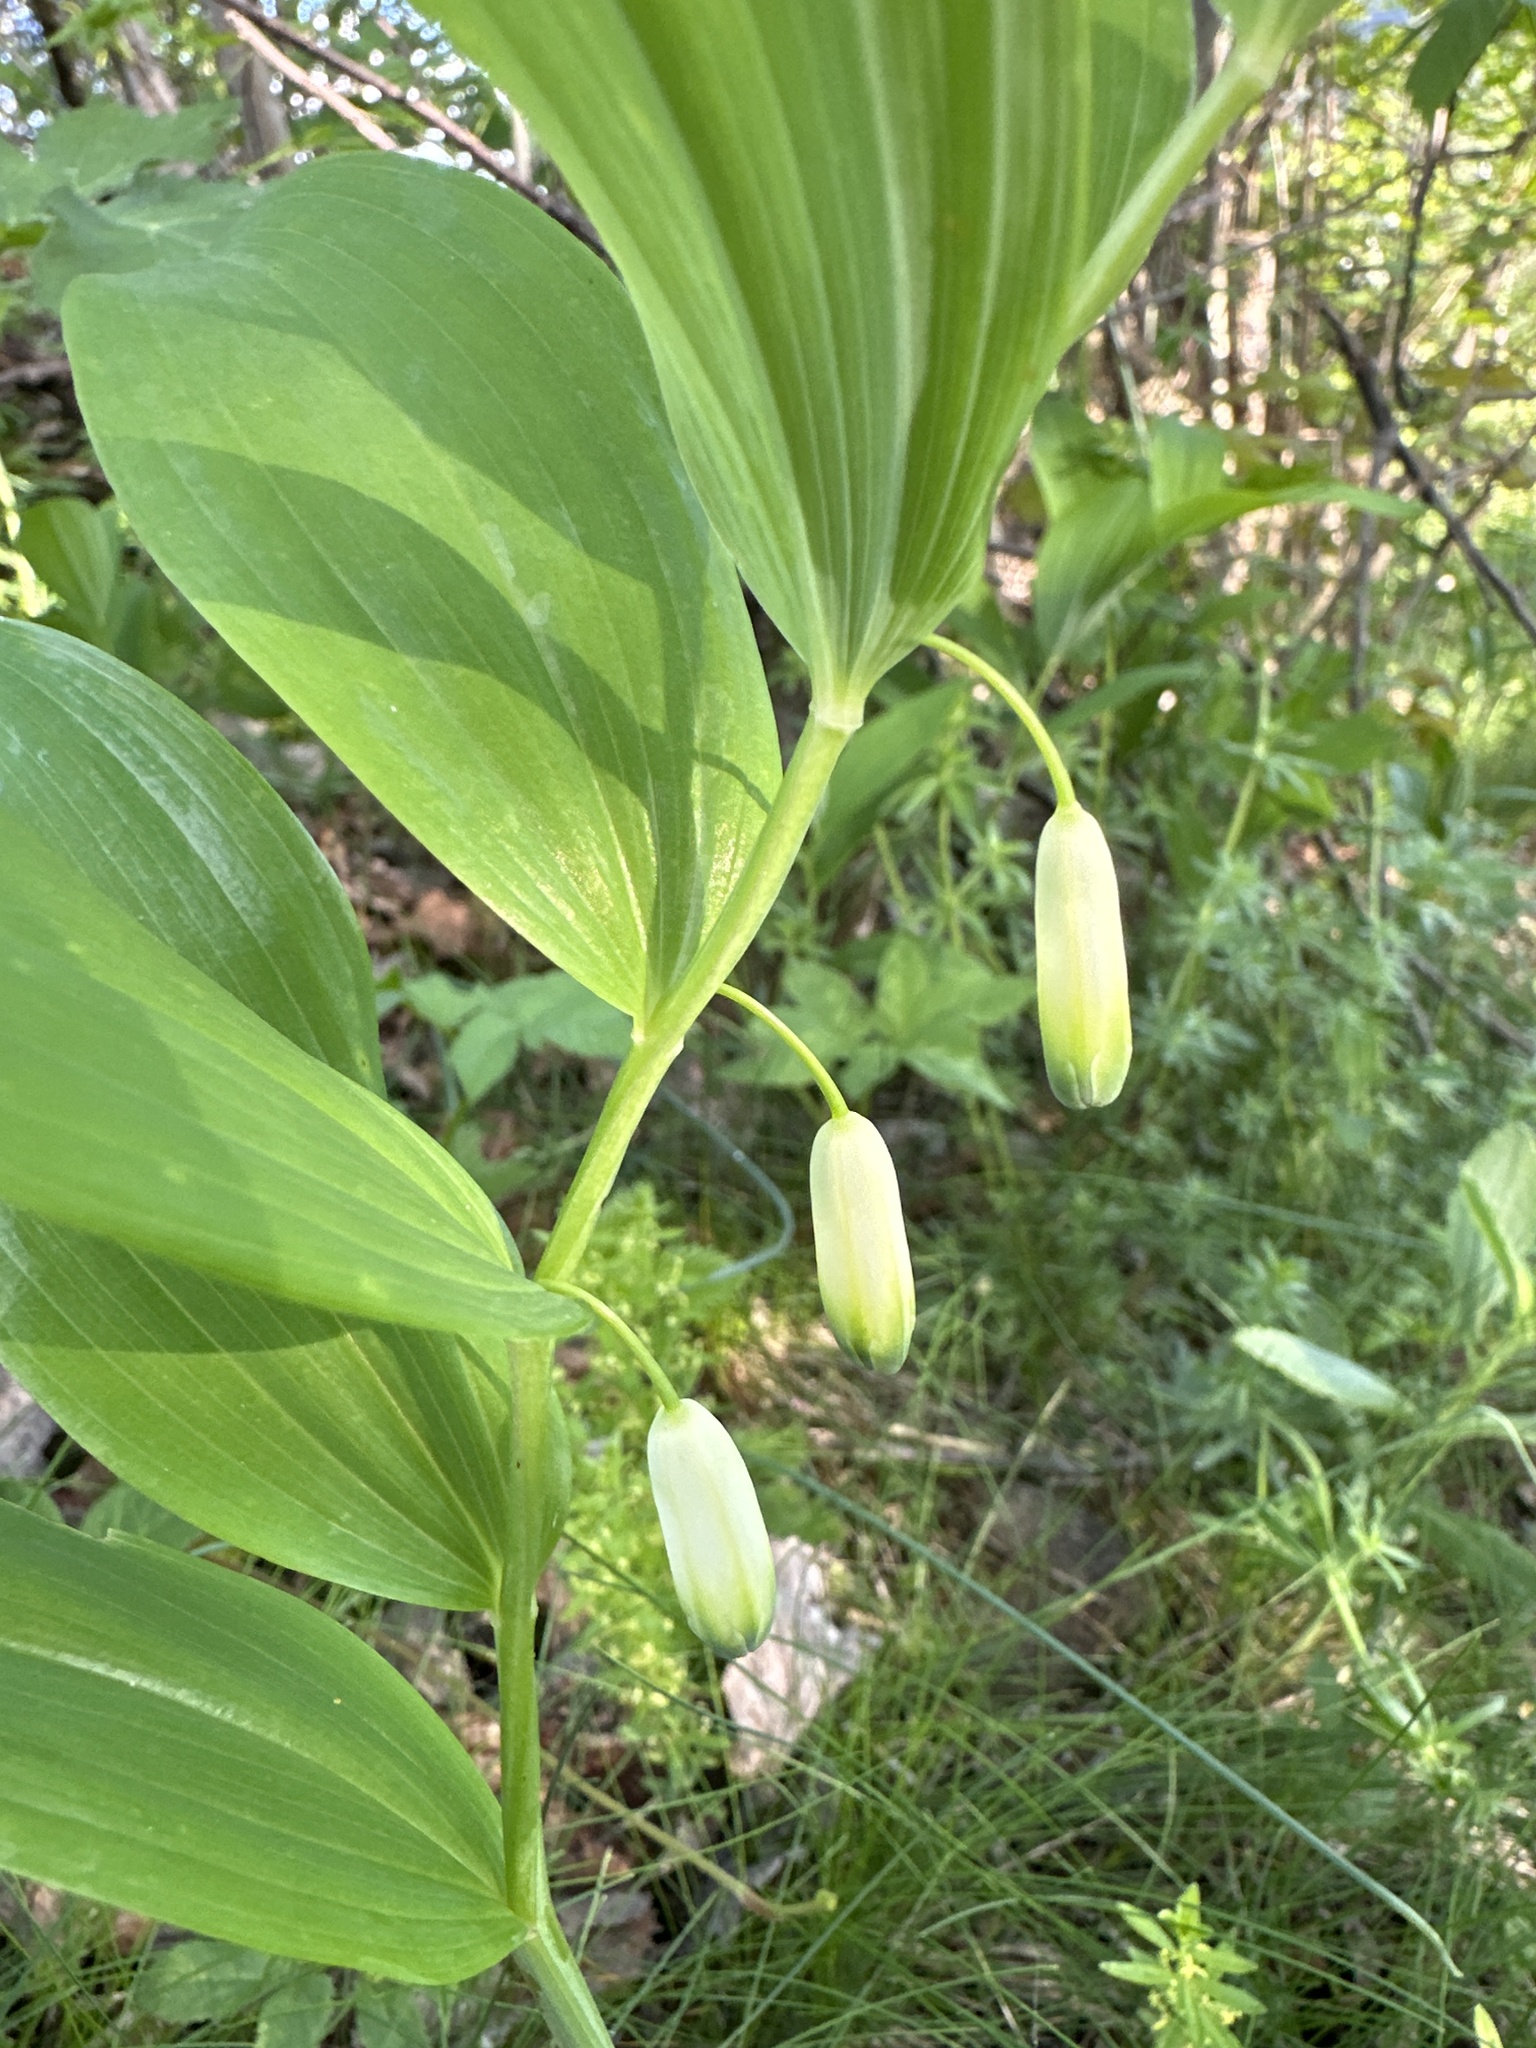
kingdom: Plantae
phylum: Tracheophyta
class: Liliopsida
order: Asparagales
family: Asparagaceae
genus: Polygonatum
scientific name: Polygonatum odoratum
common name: Angular solomon's-seal
